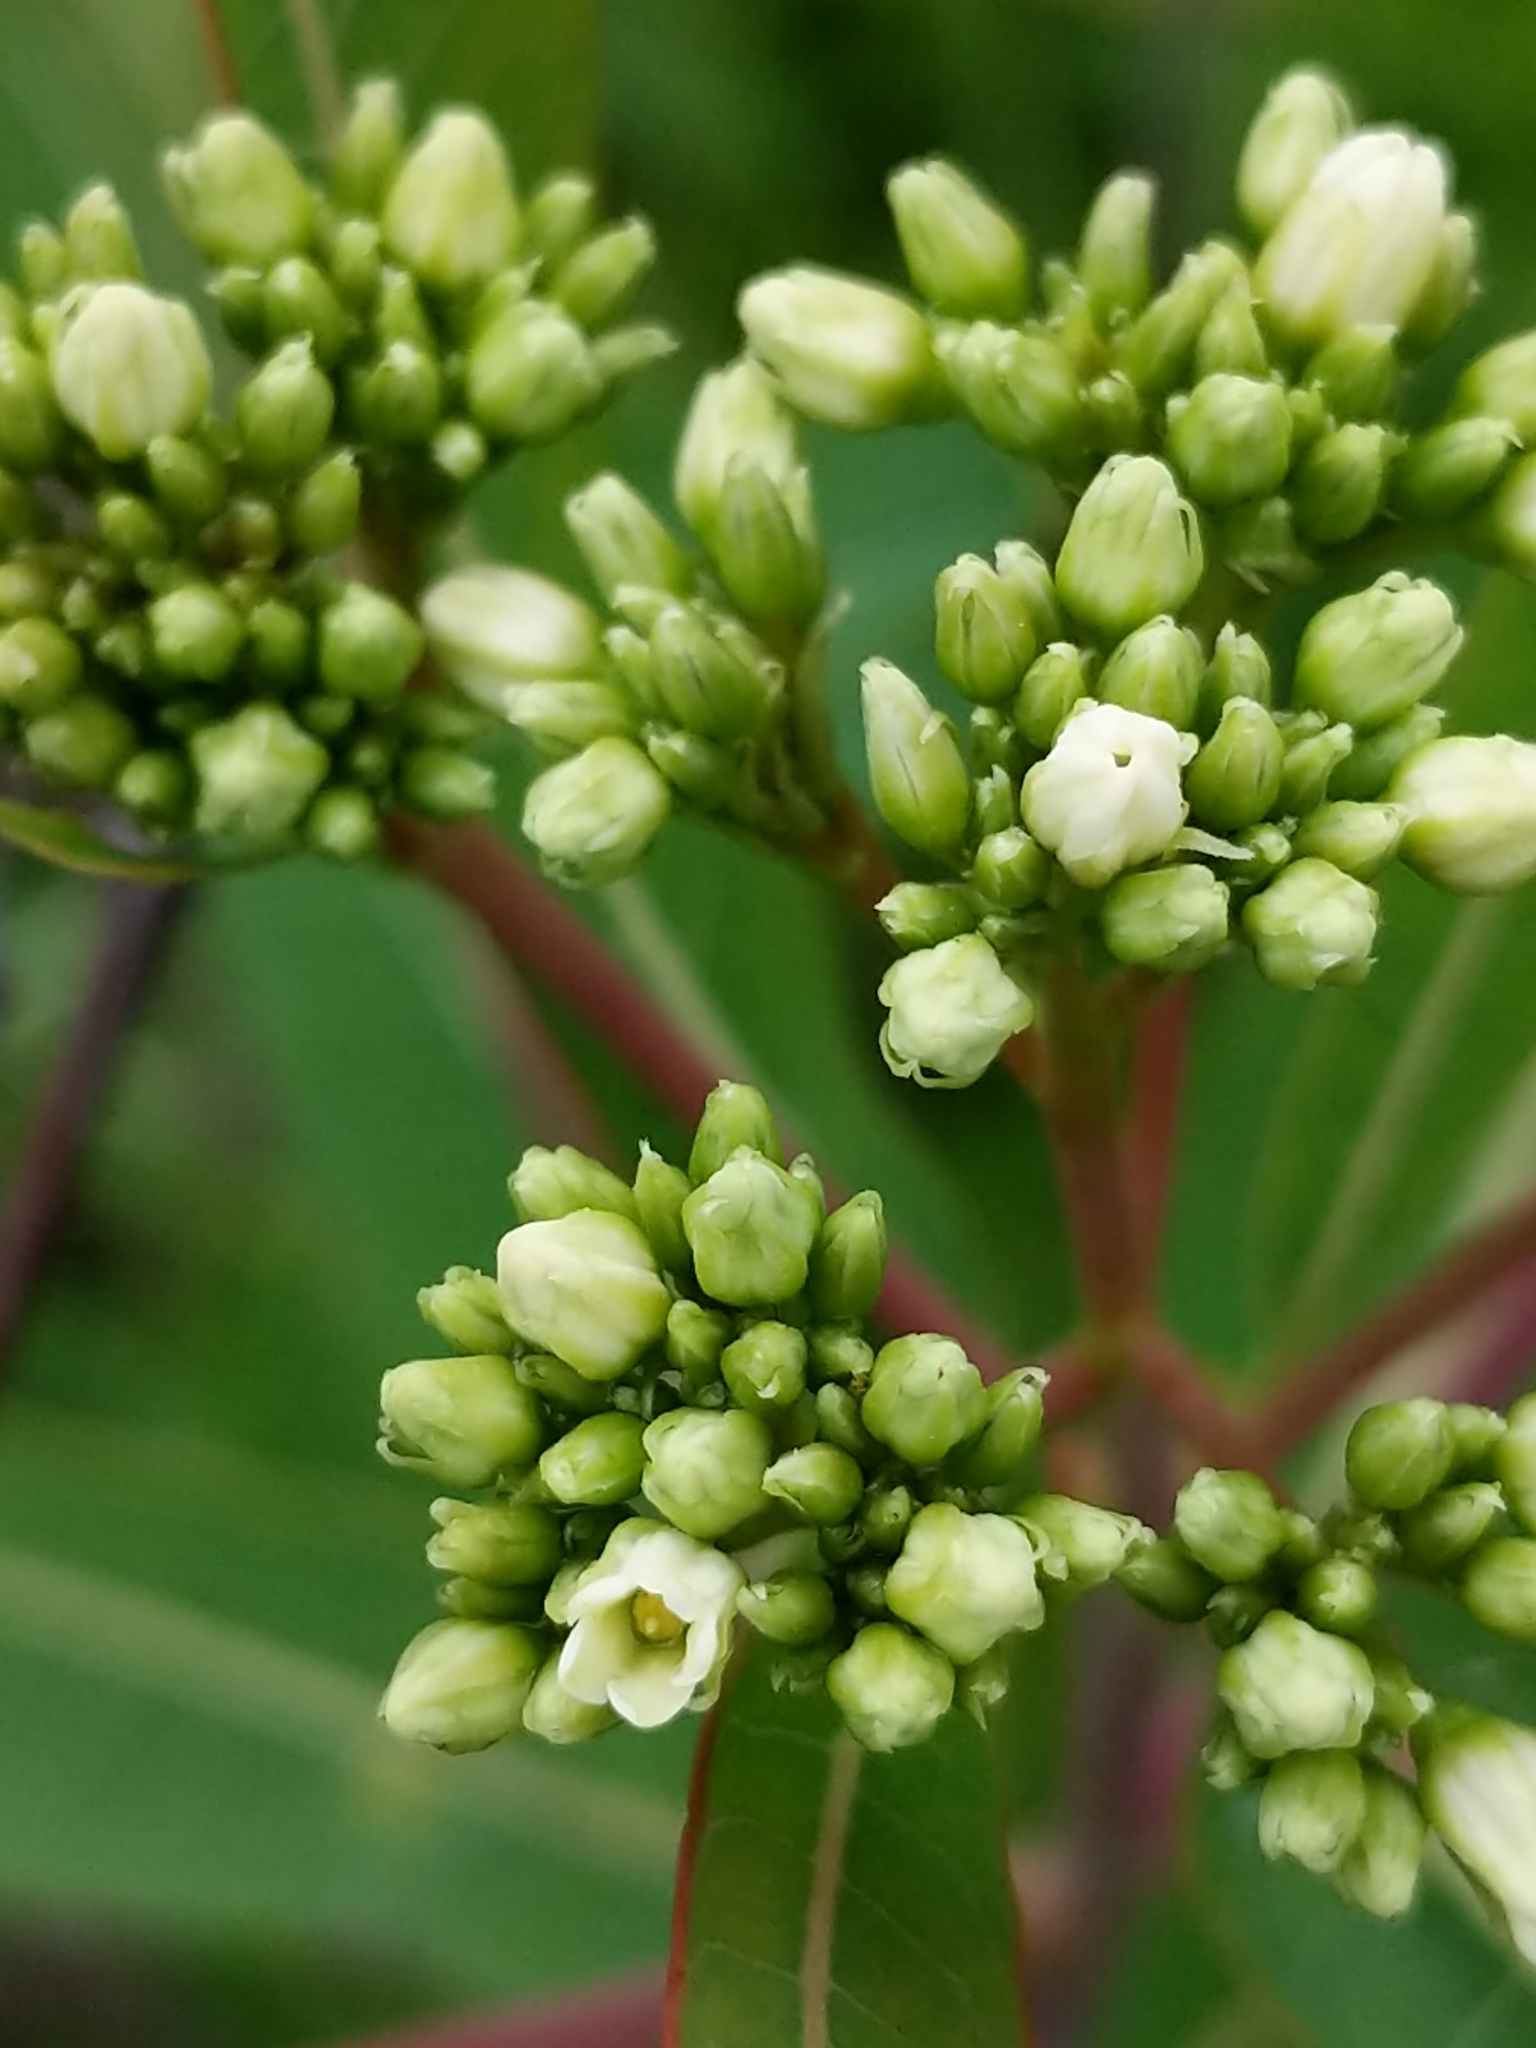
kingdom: Plantae
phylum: Tracheophyta
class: Magnoliopsida
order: Gentianales
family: Apocynaceae
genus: Apocynum
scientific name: Apocynum cannabinum
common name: Hemp dogbane
